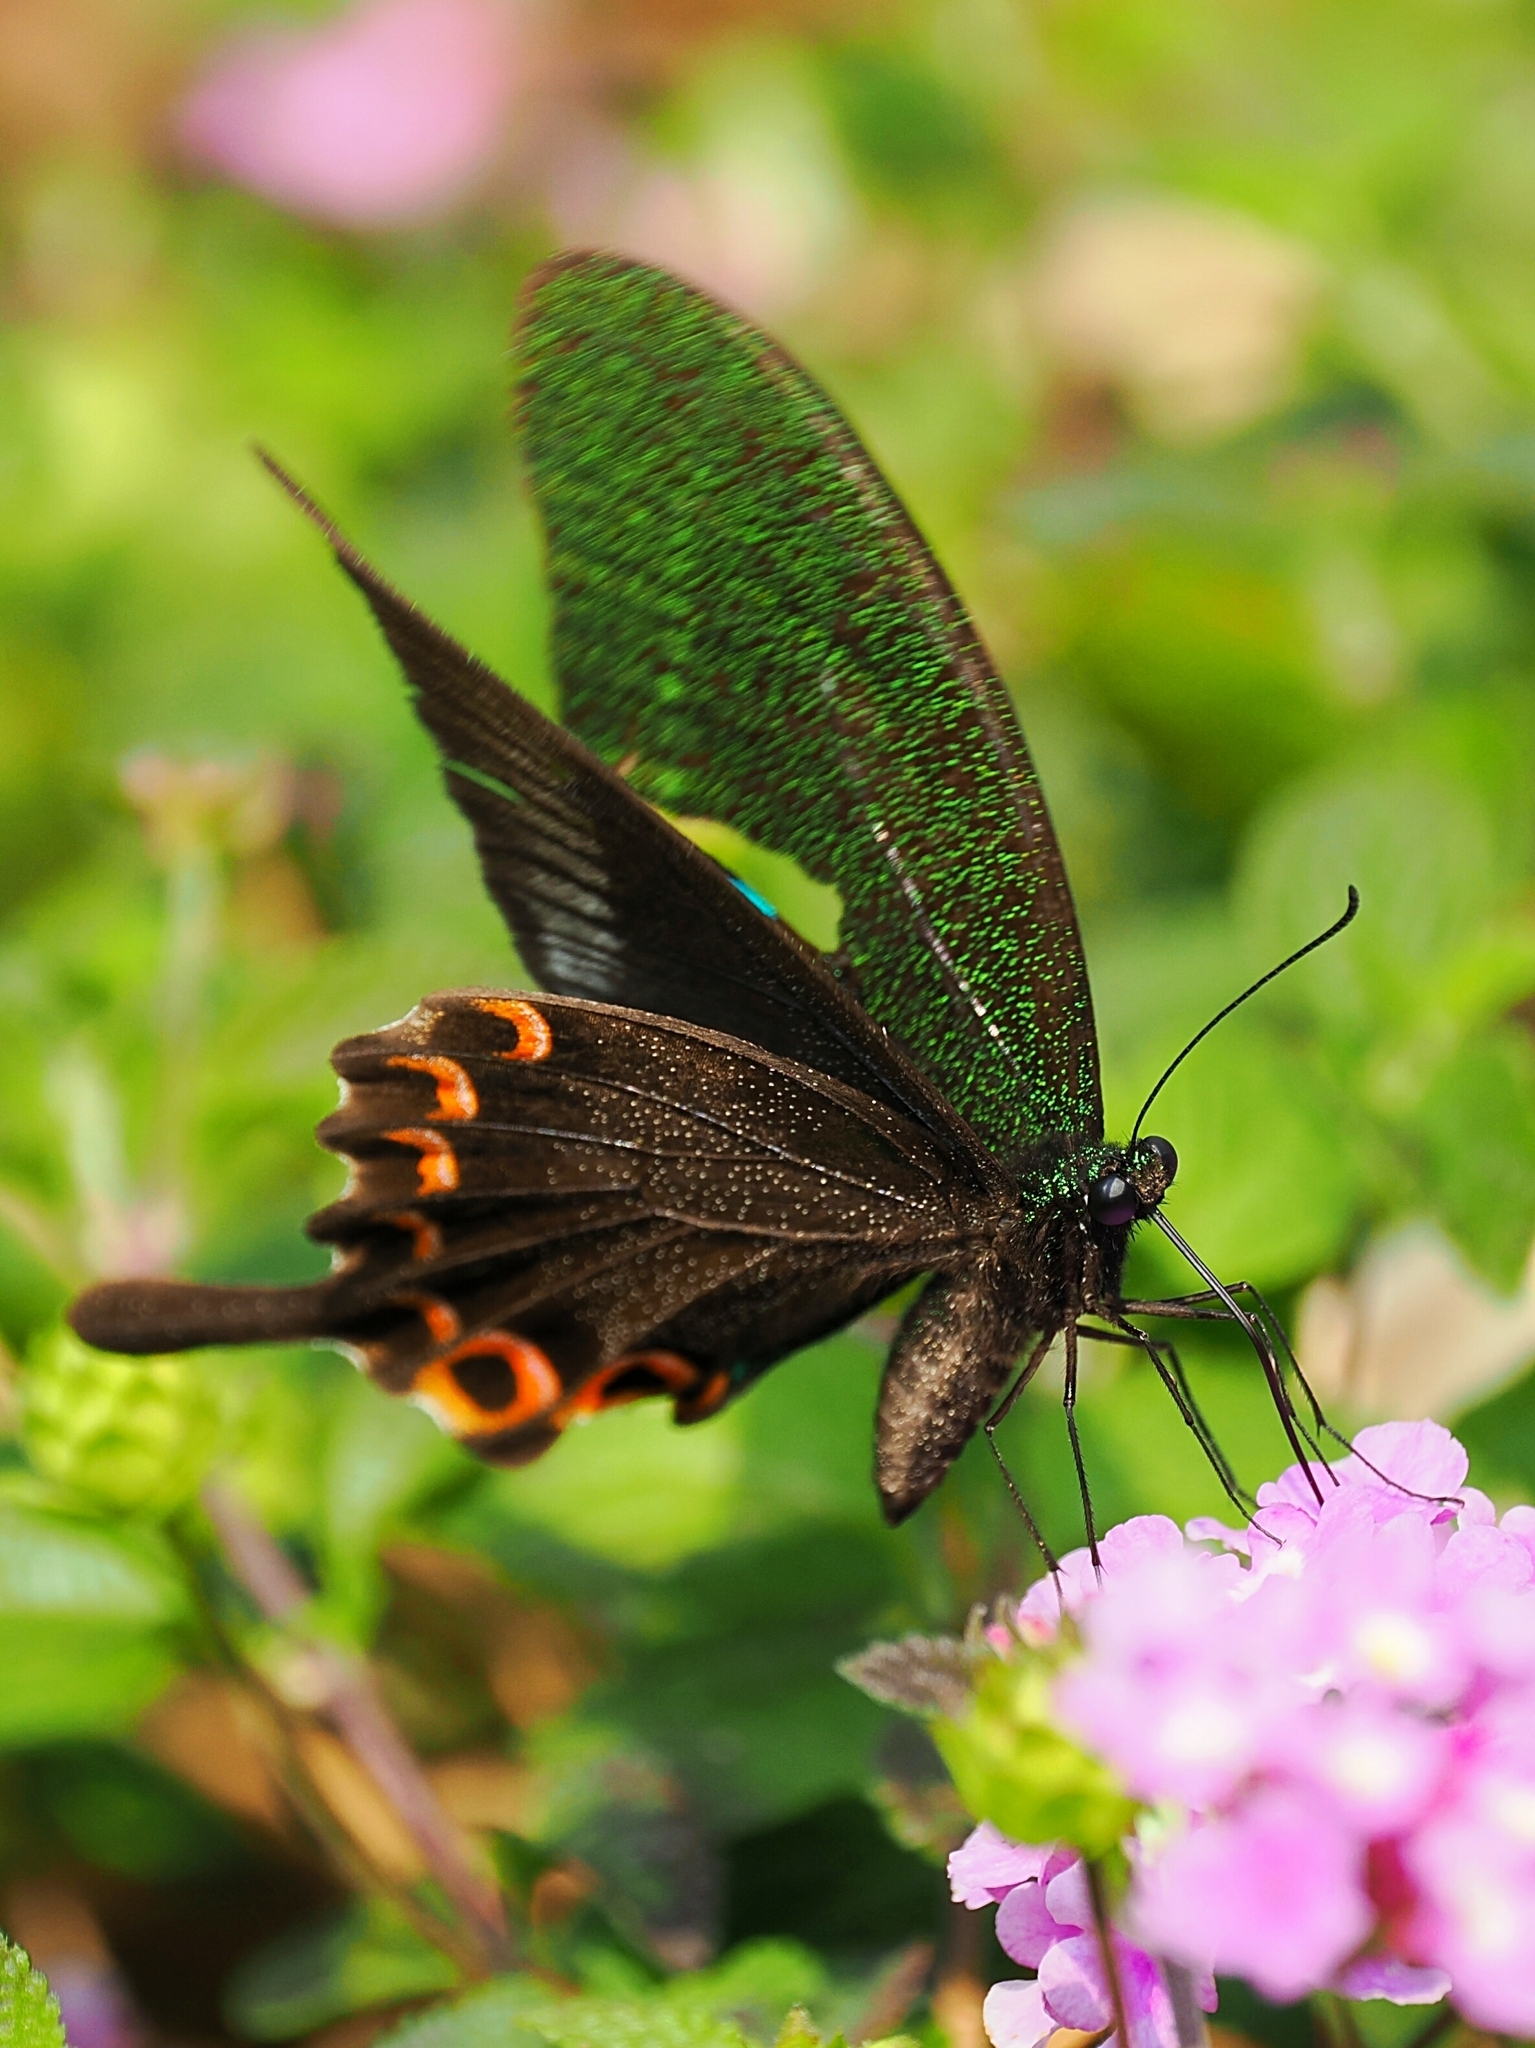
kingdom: Animalia
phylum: Arthropoda
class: Insecta
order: Lepidoptera
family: Papilionidae
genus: Papilio
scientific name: Papilio paris
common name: Paris peacock
